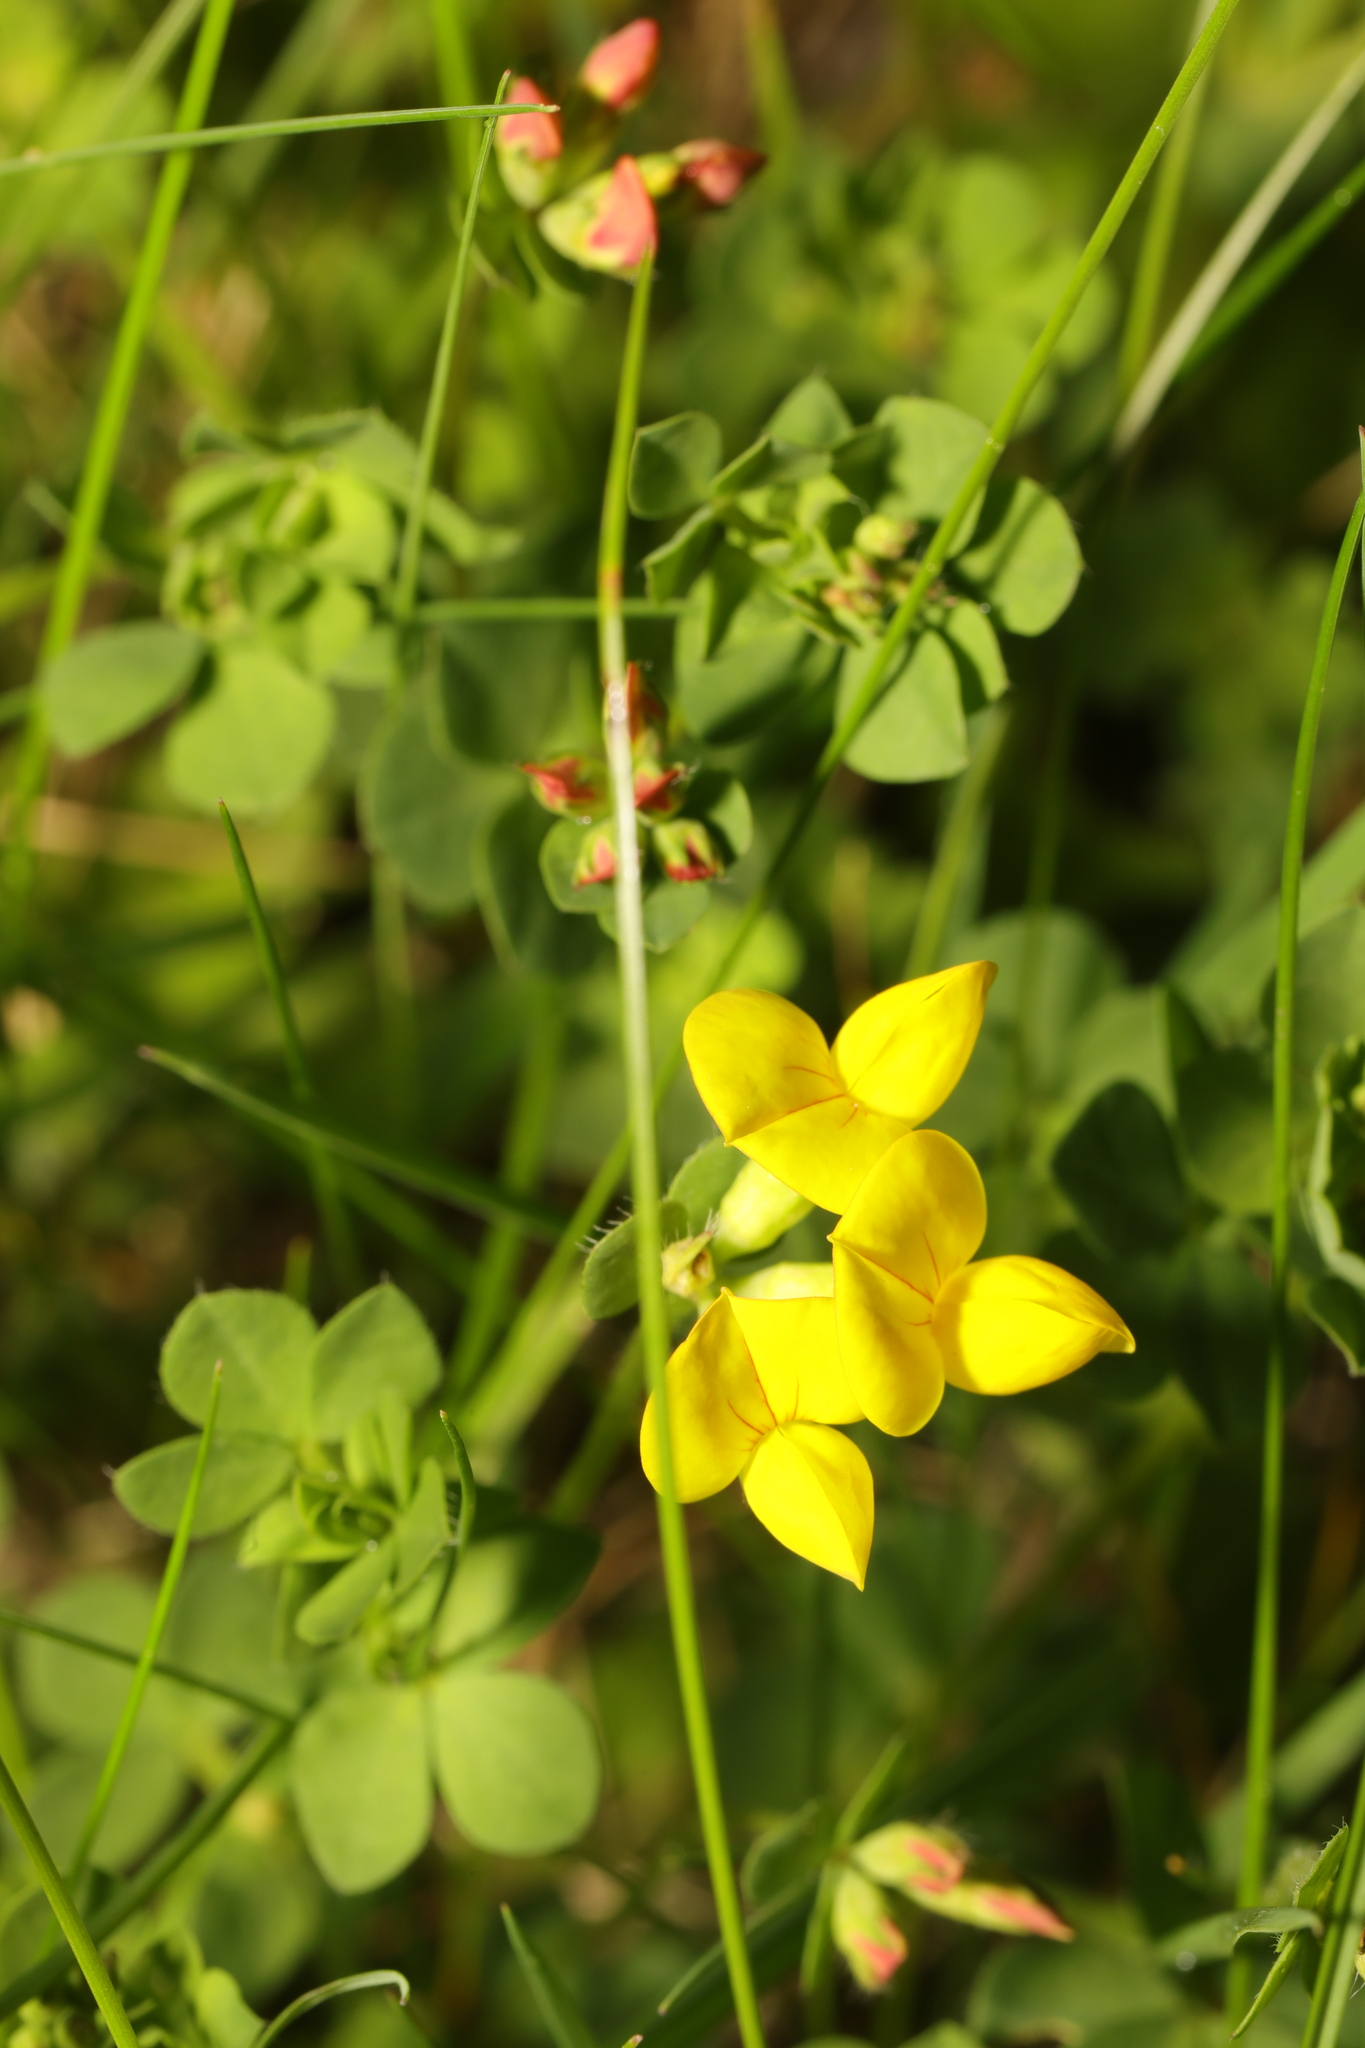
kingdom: Plantae
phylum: Tracheophyta
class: Magnoliopsida
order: Fabales
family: Fabaceae
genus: Lotus
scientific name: Lotus corniculatus
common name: Common bird's-foot-trefoil
